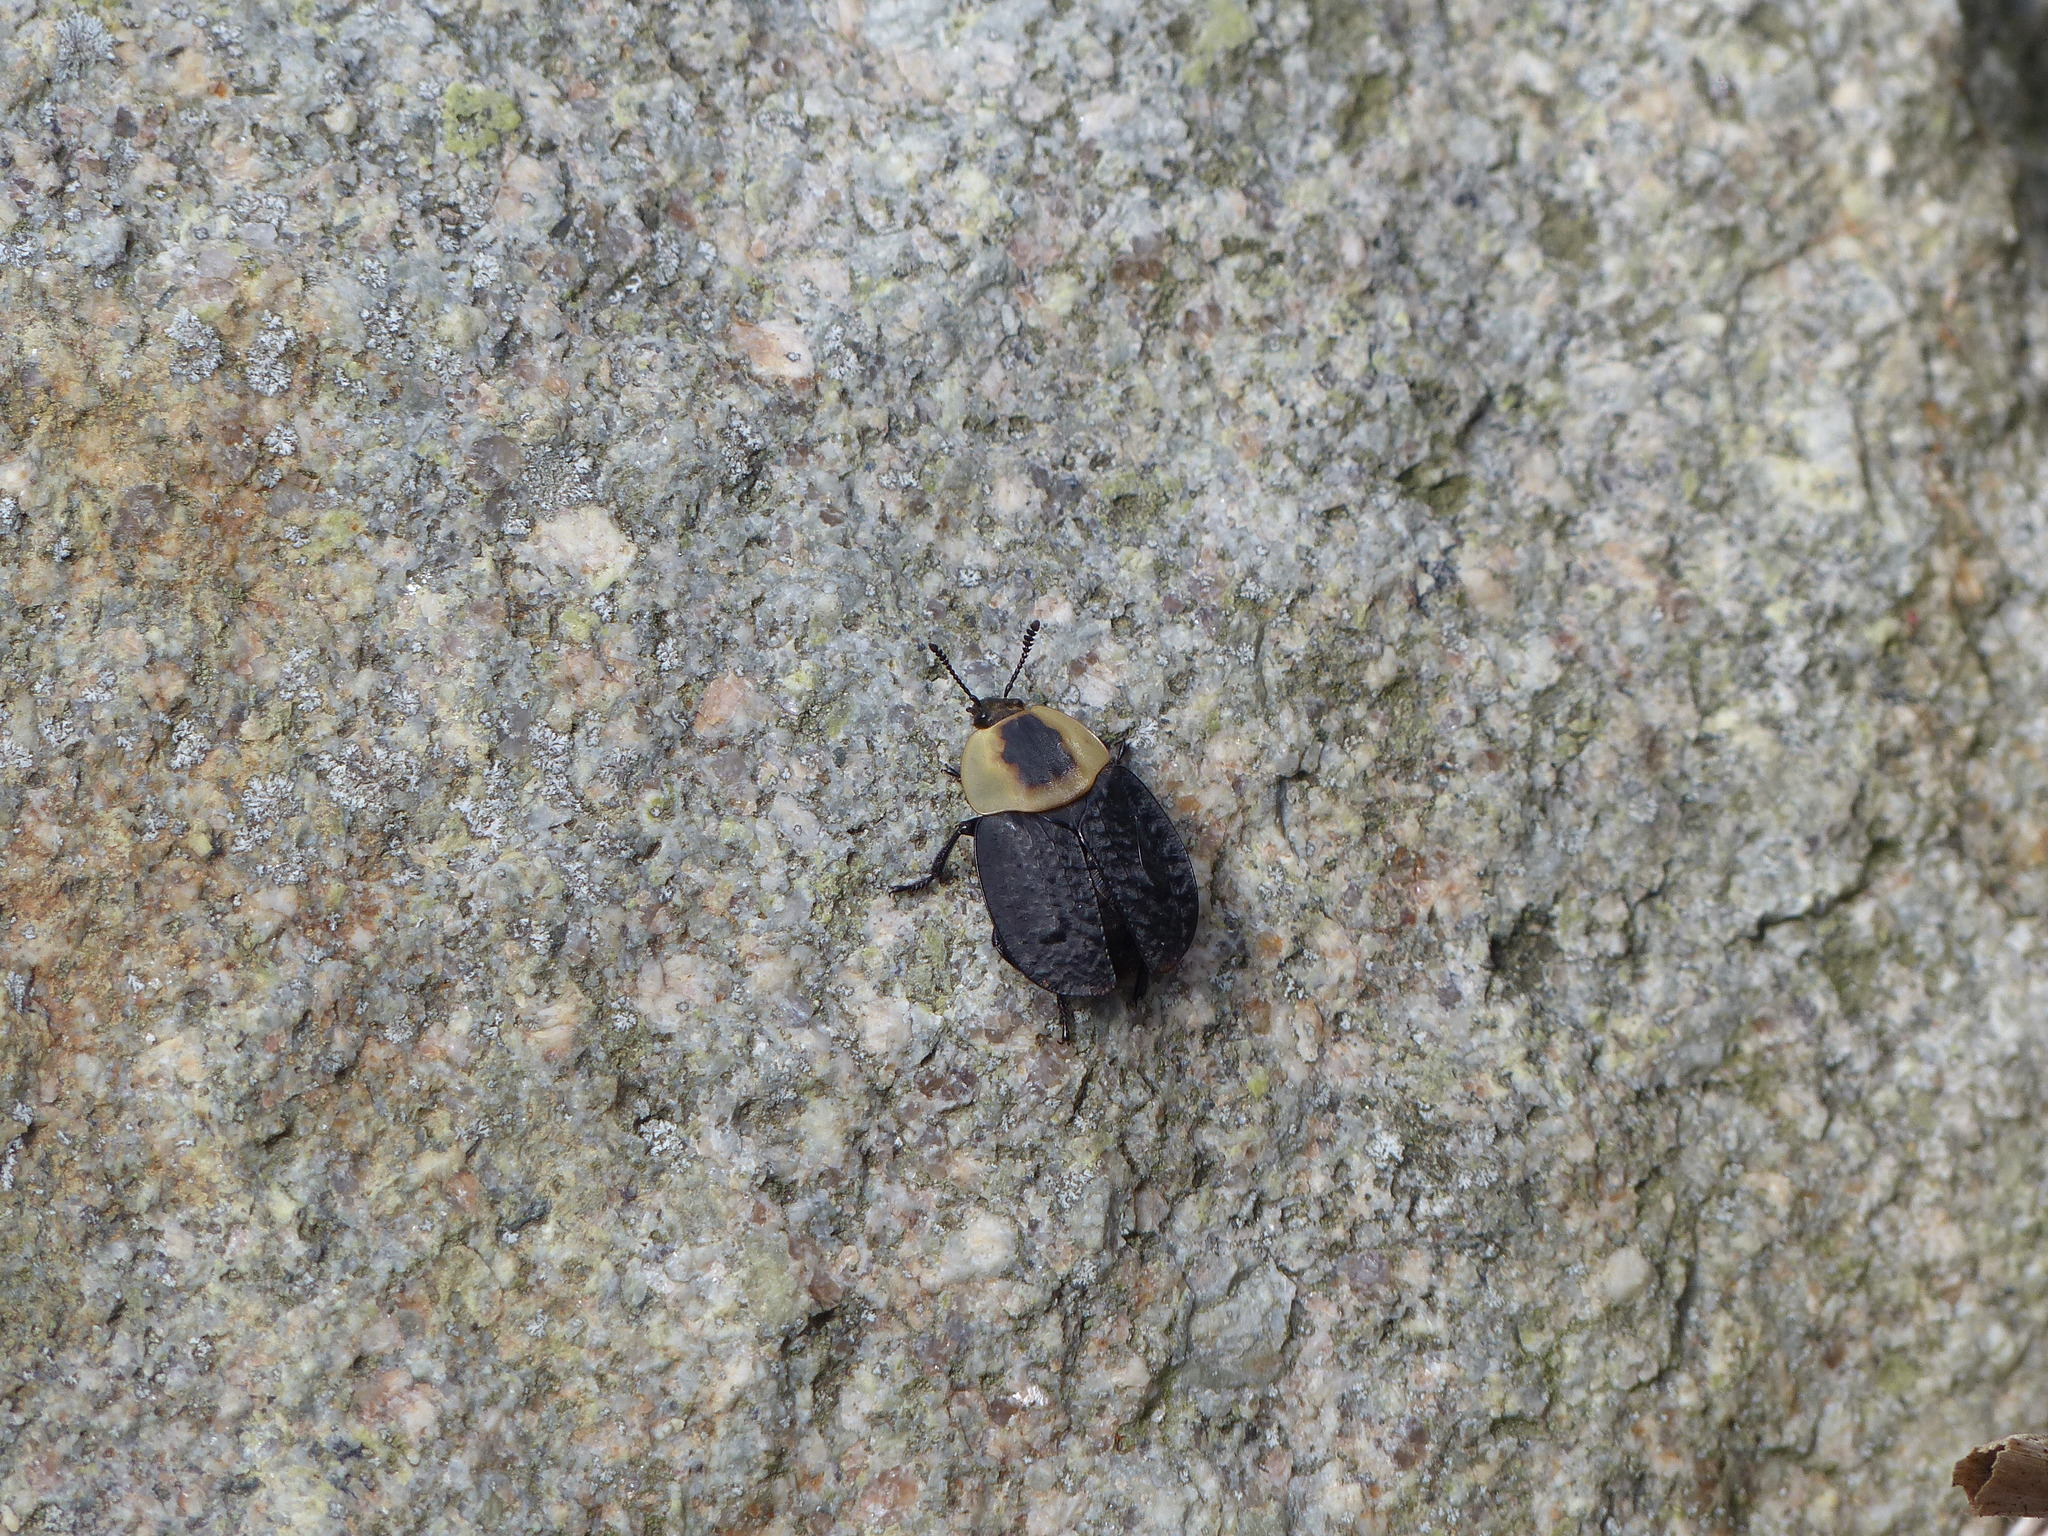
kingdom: Animalia
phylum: Arthropoda
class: Insecta
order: Coleoptera
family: Staphylinidae
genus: Necrophila
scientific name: Necrophila americana
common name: American carrion beetle
